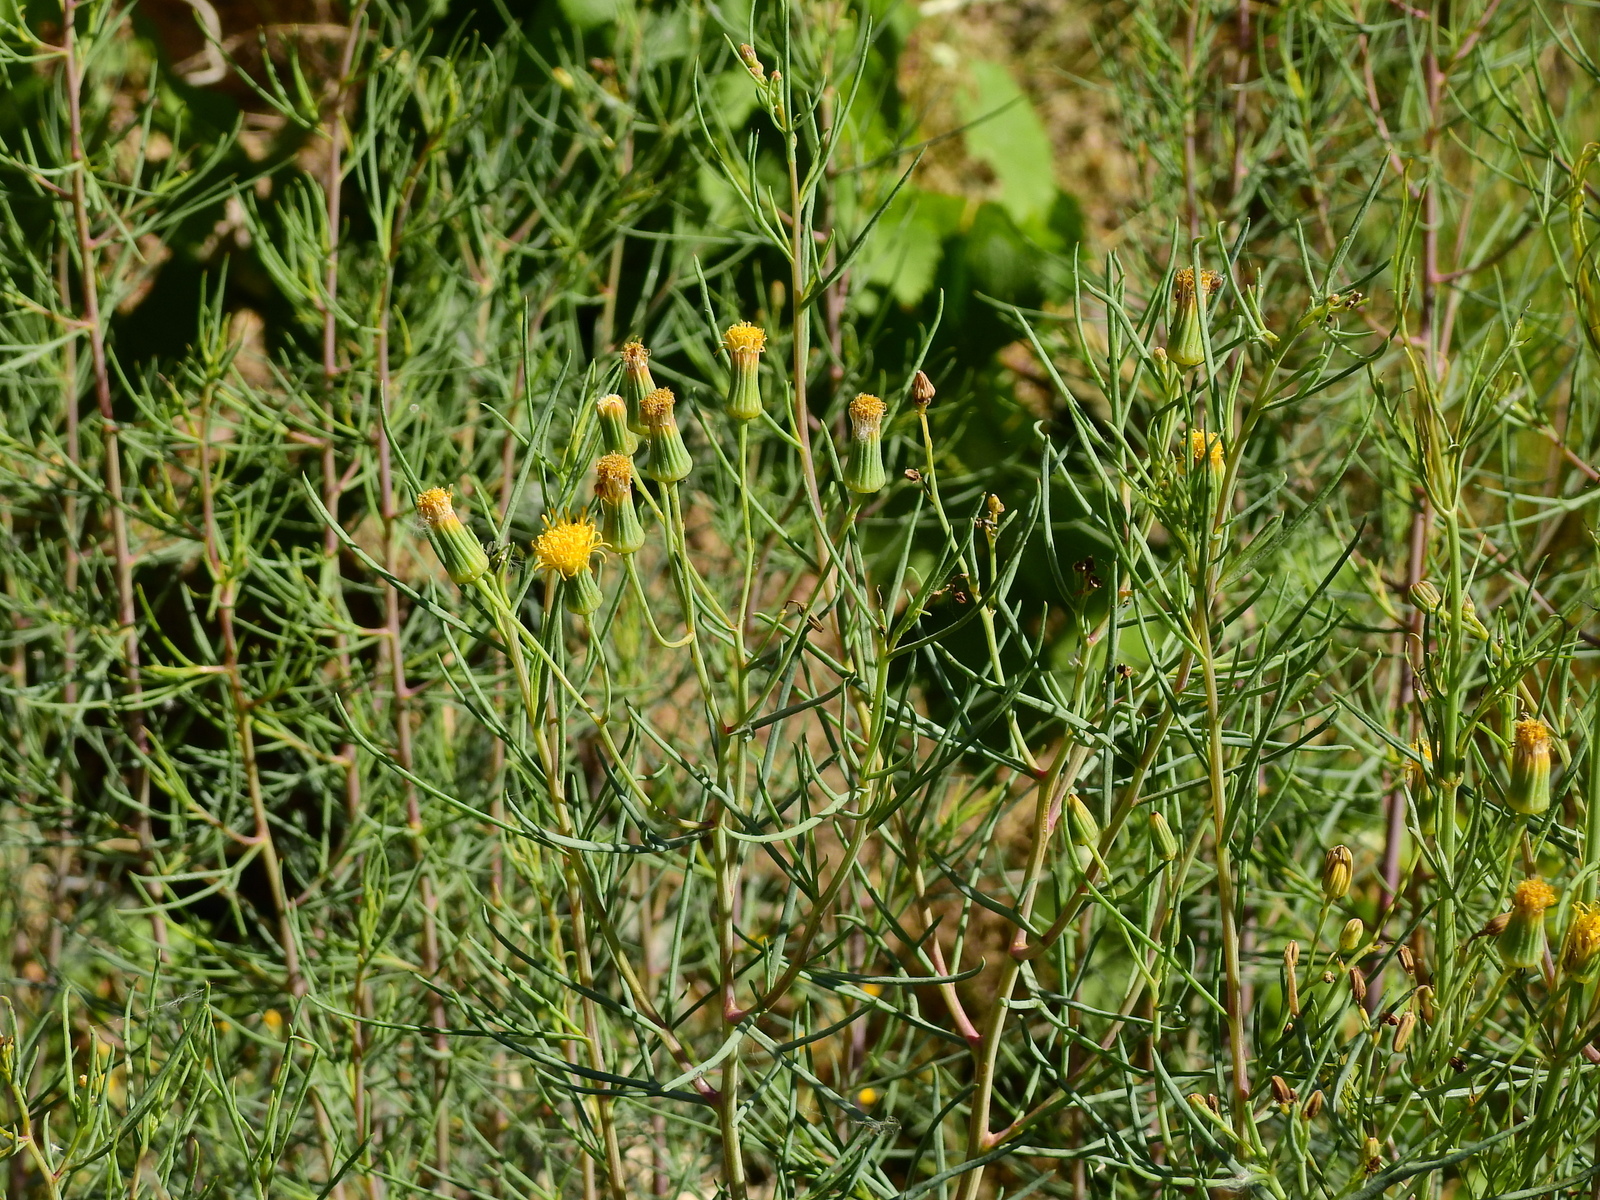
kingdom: Plantae
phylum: Tracheophyta
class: Magnoliopsida
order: Asterales
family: Asteraceae
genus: Senecio
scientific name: Senecio subulatus
